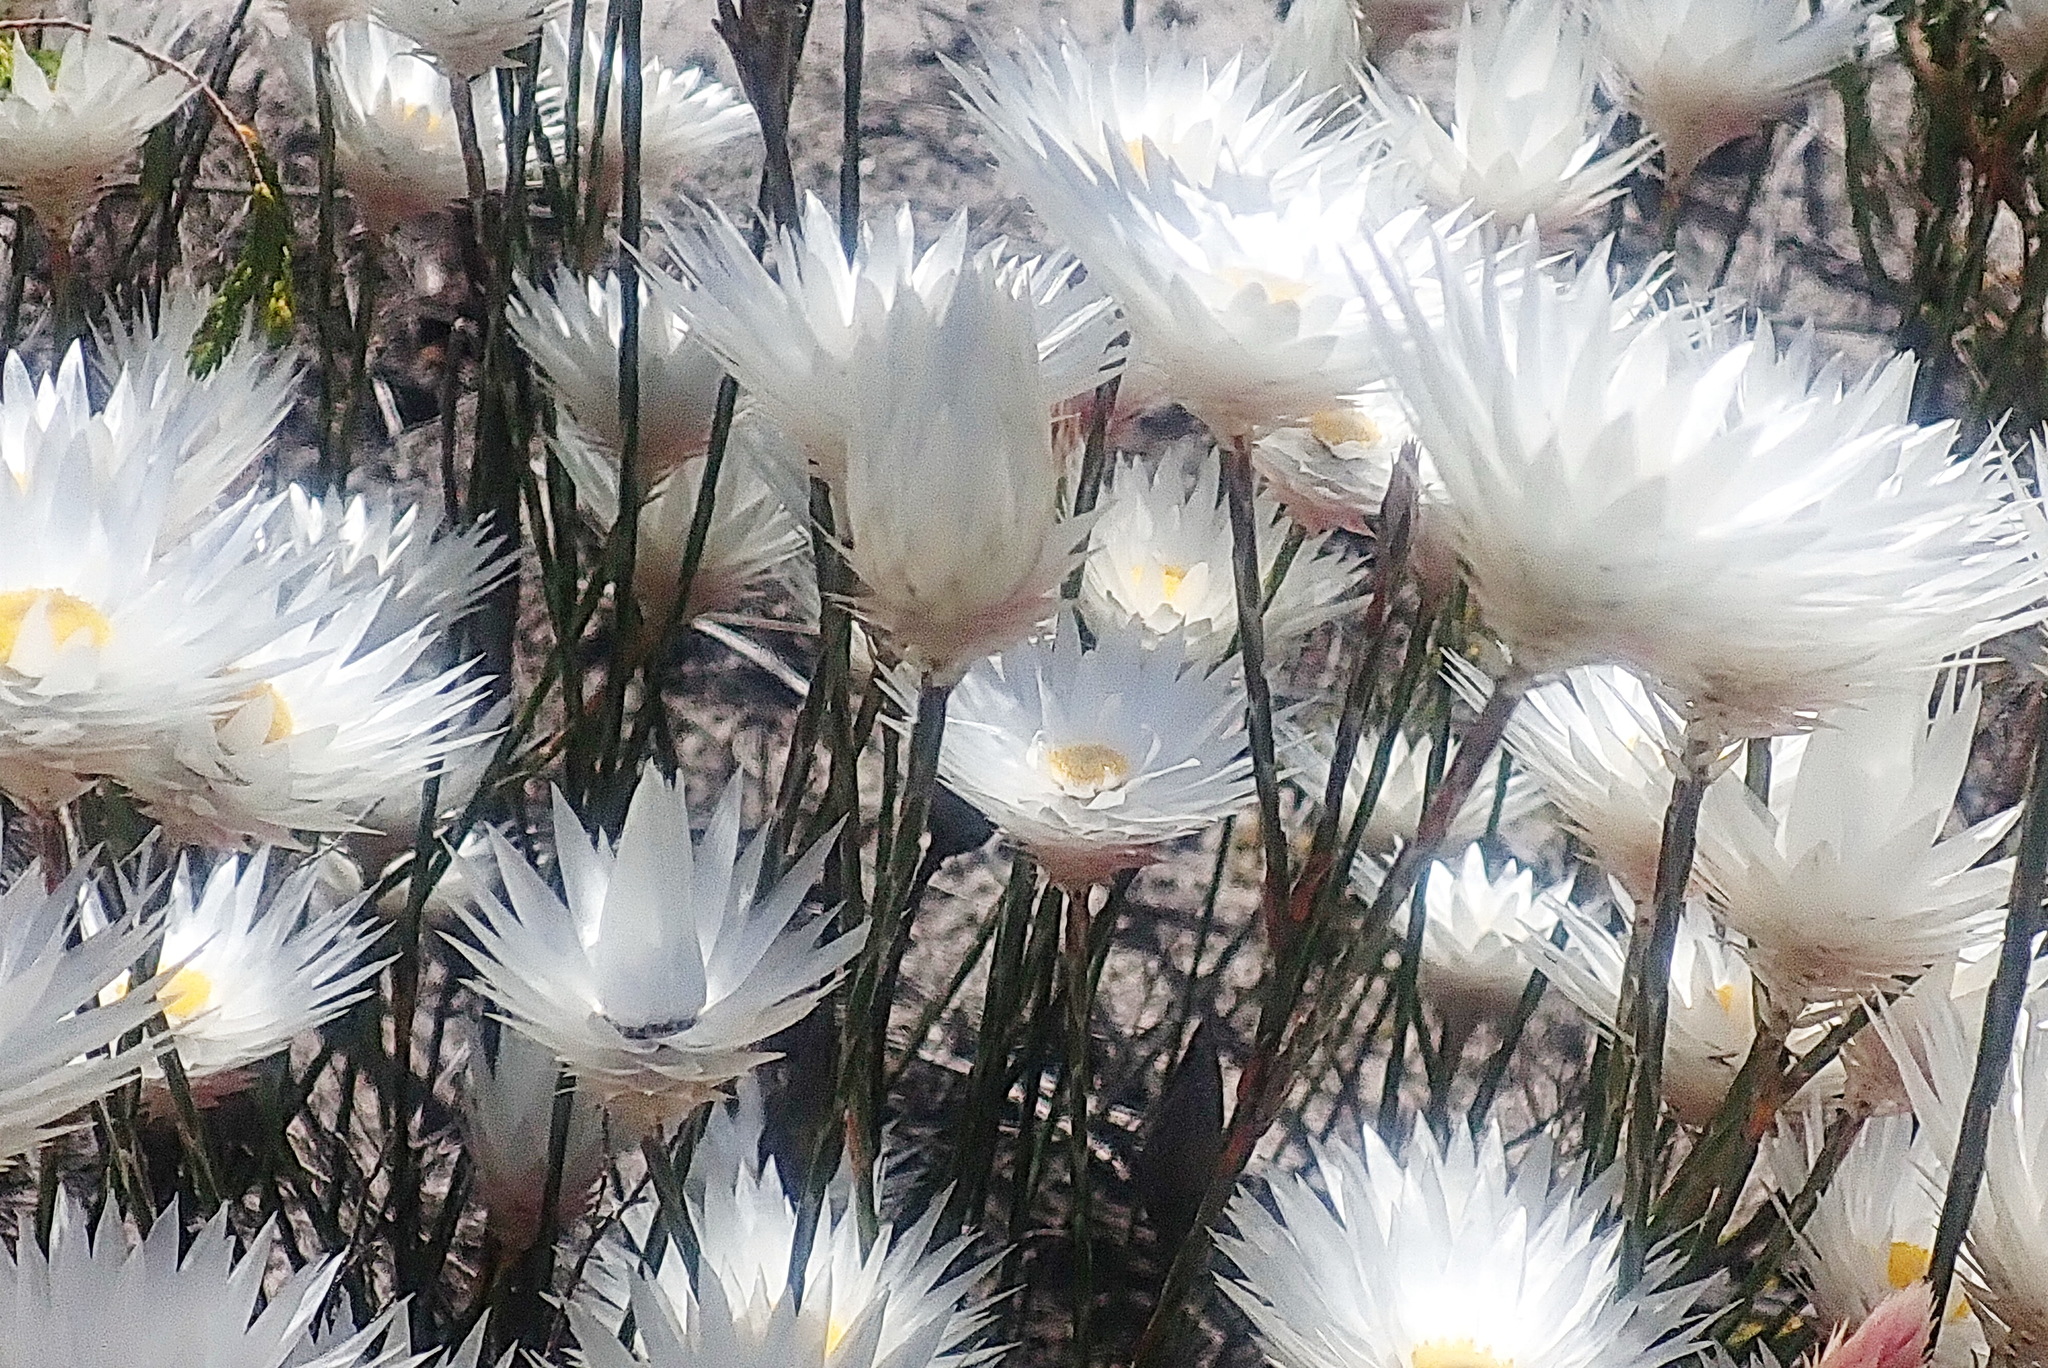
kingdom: Plantae
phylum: Tracheophyta
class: Magnoliopsida
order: Asterales
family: Asteraceae
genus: Edmondia
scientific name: Edmondia sesamoides
